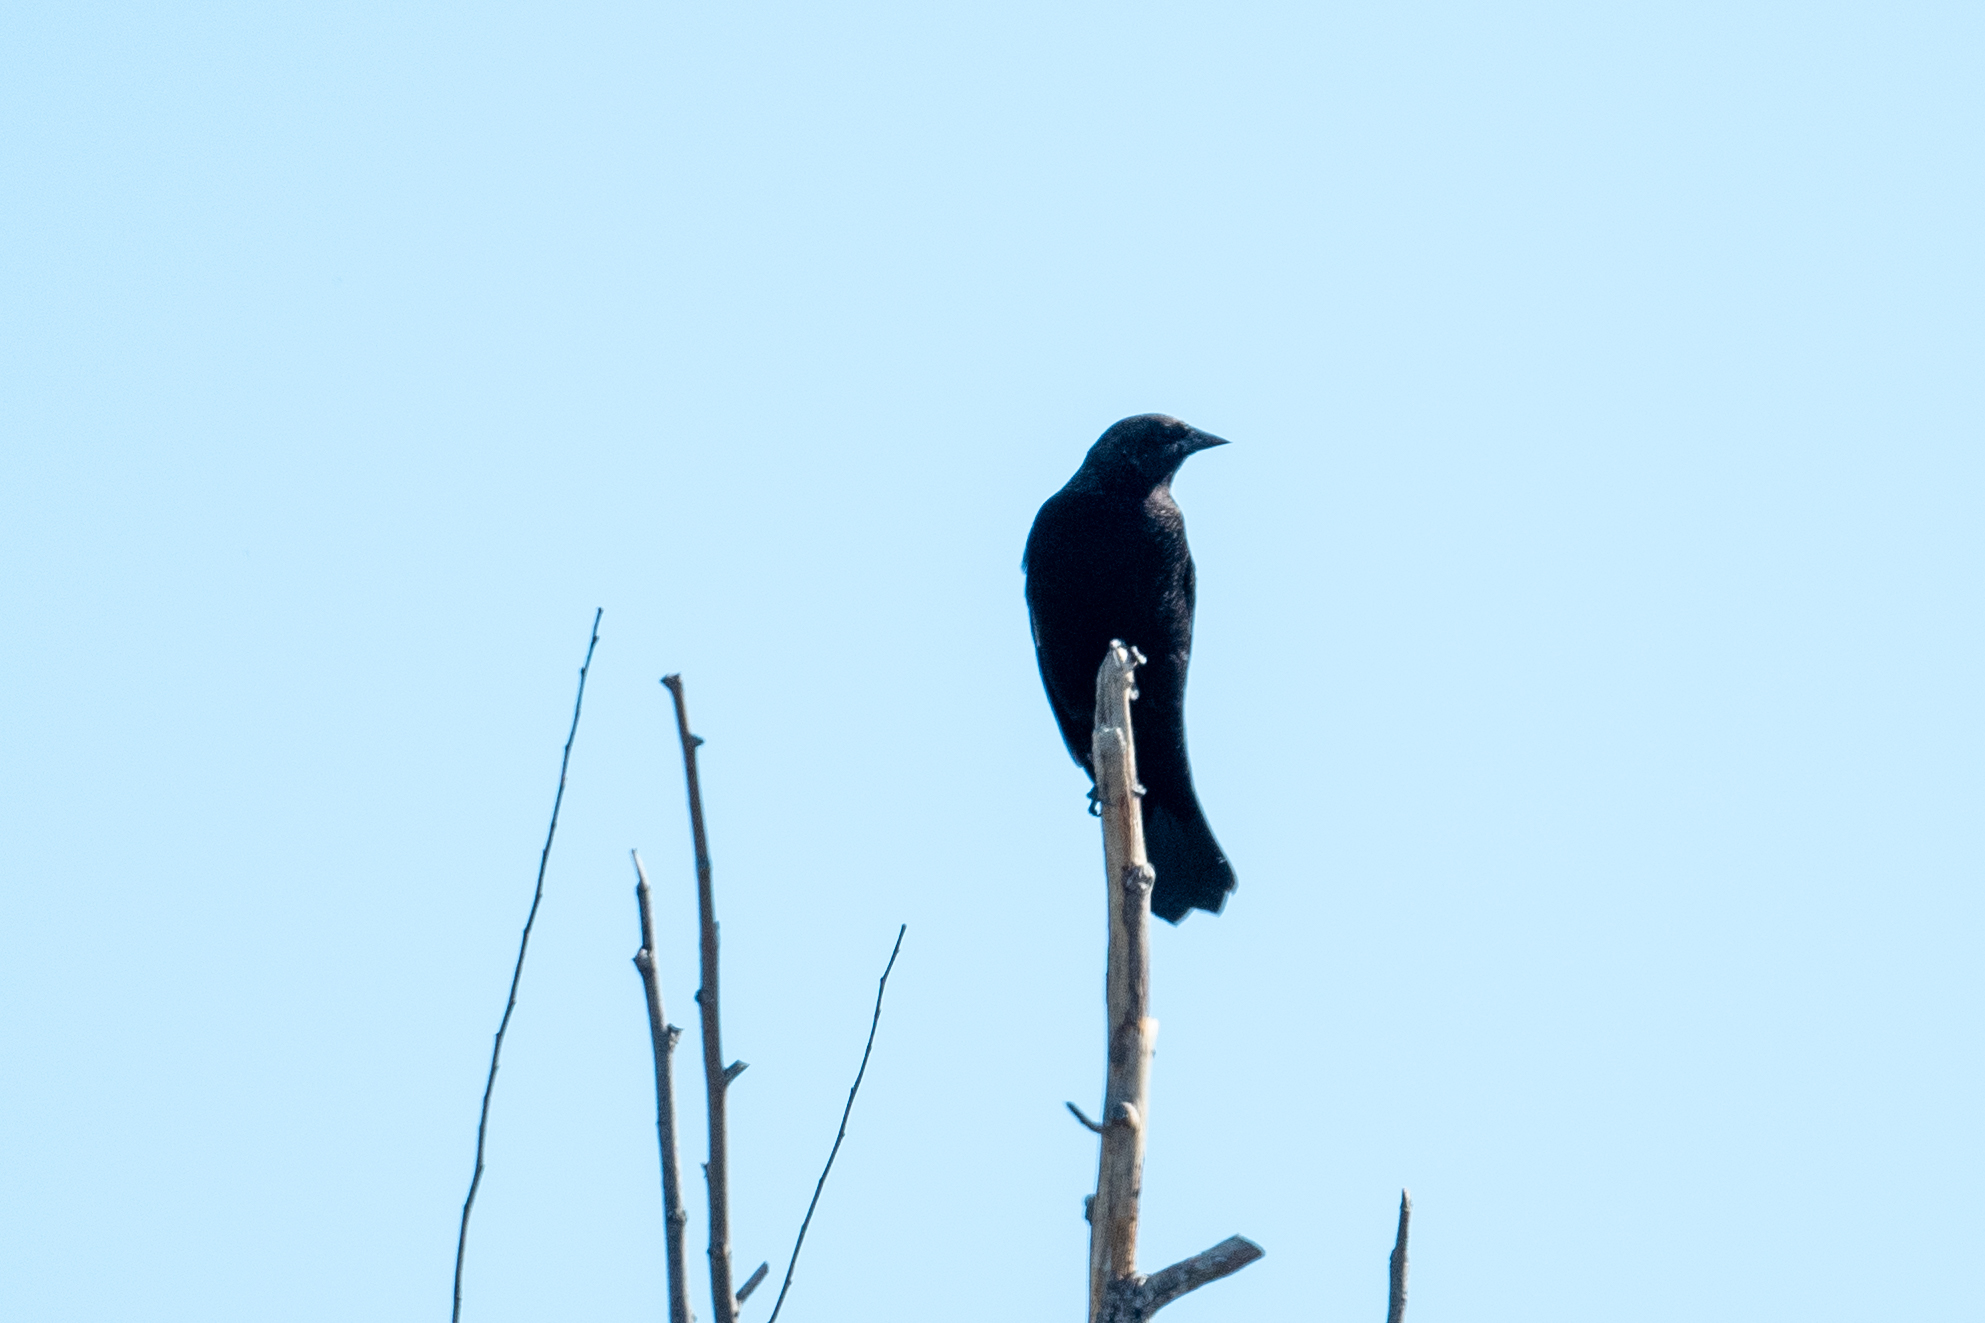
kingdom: Animalia
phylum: Chordata
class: Aves
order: Passeriformes
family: Icteridae
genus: Agelaius
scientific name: Agelaius phoeniceus
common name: Red-winged blackbird
